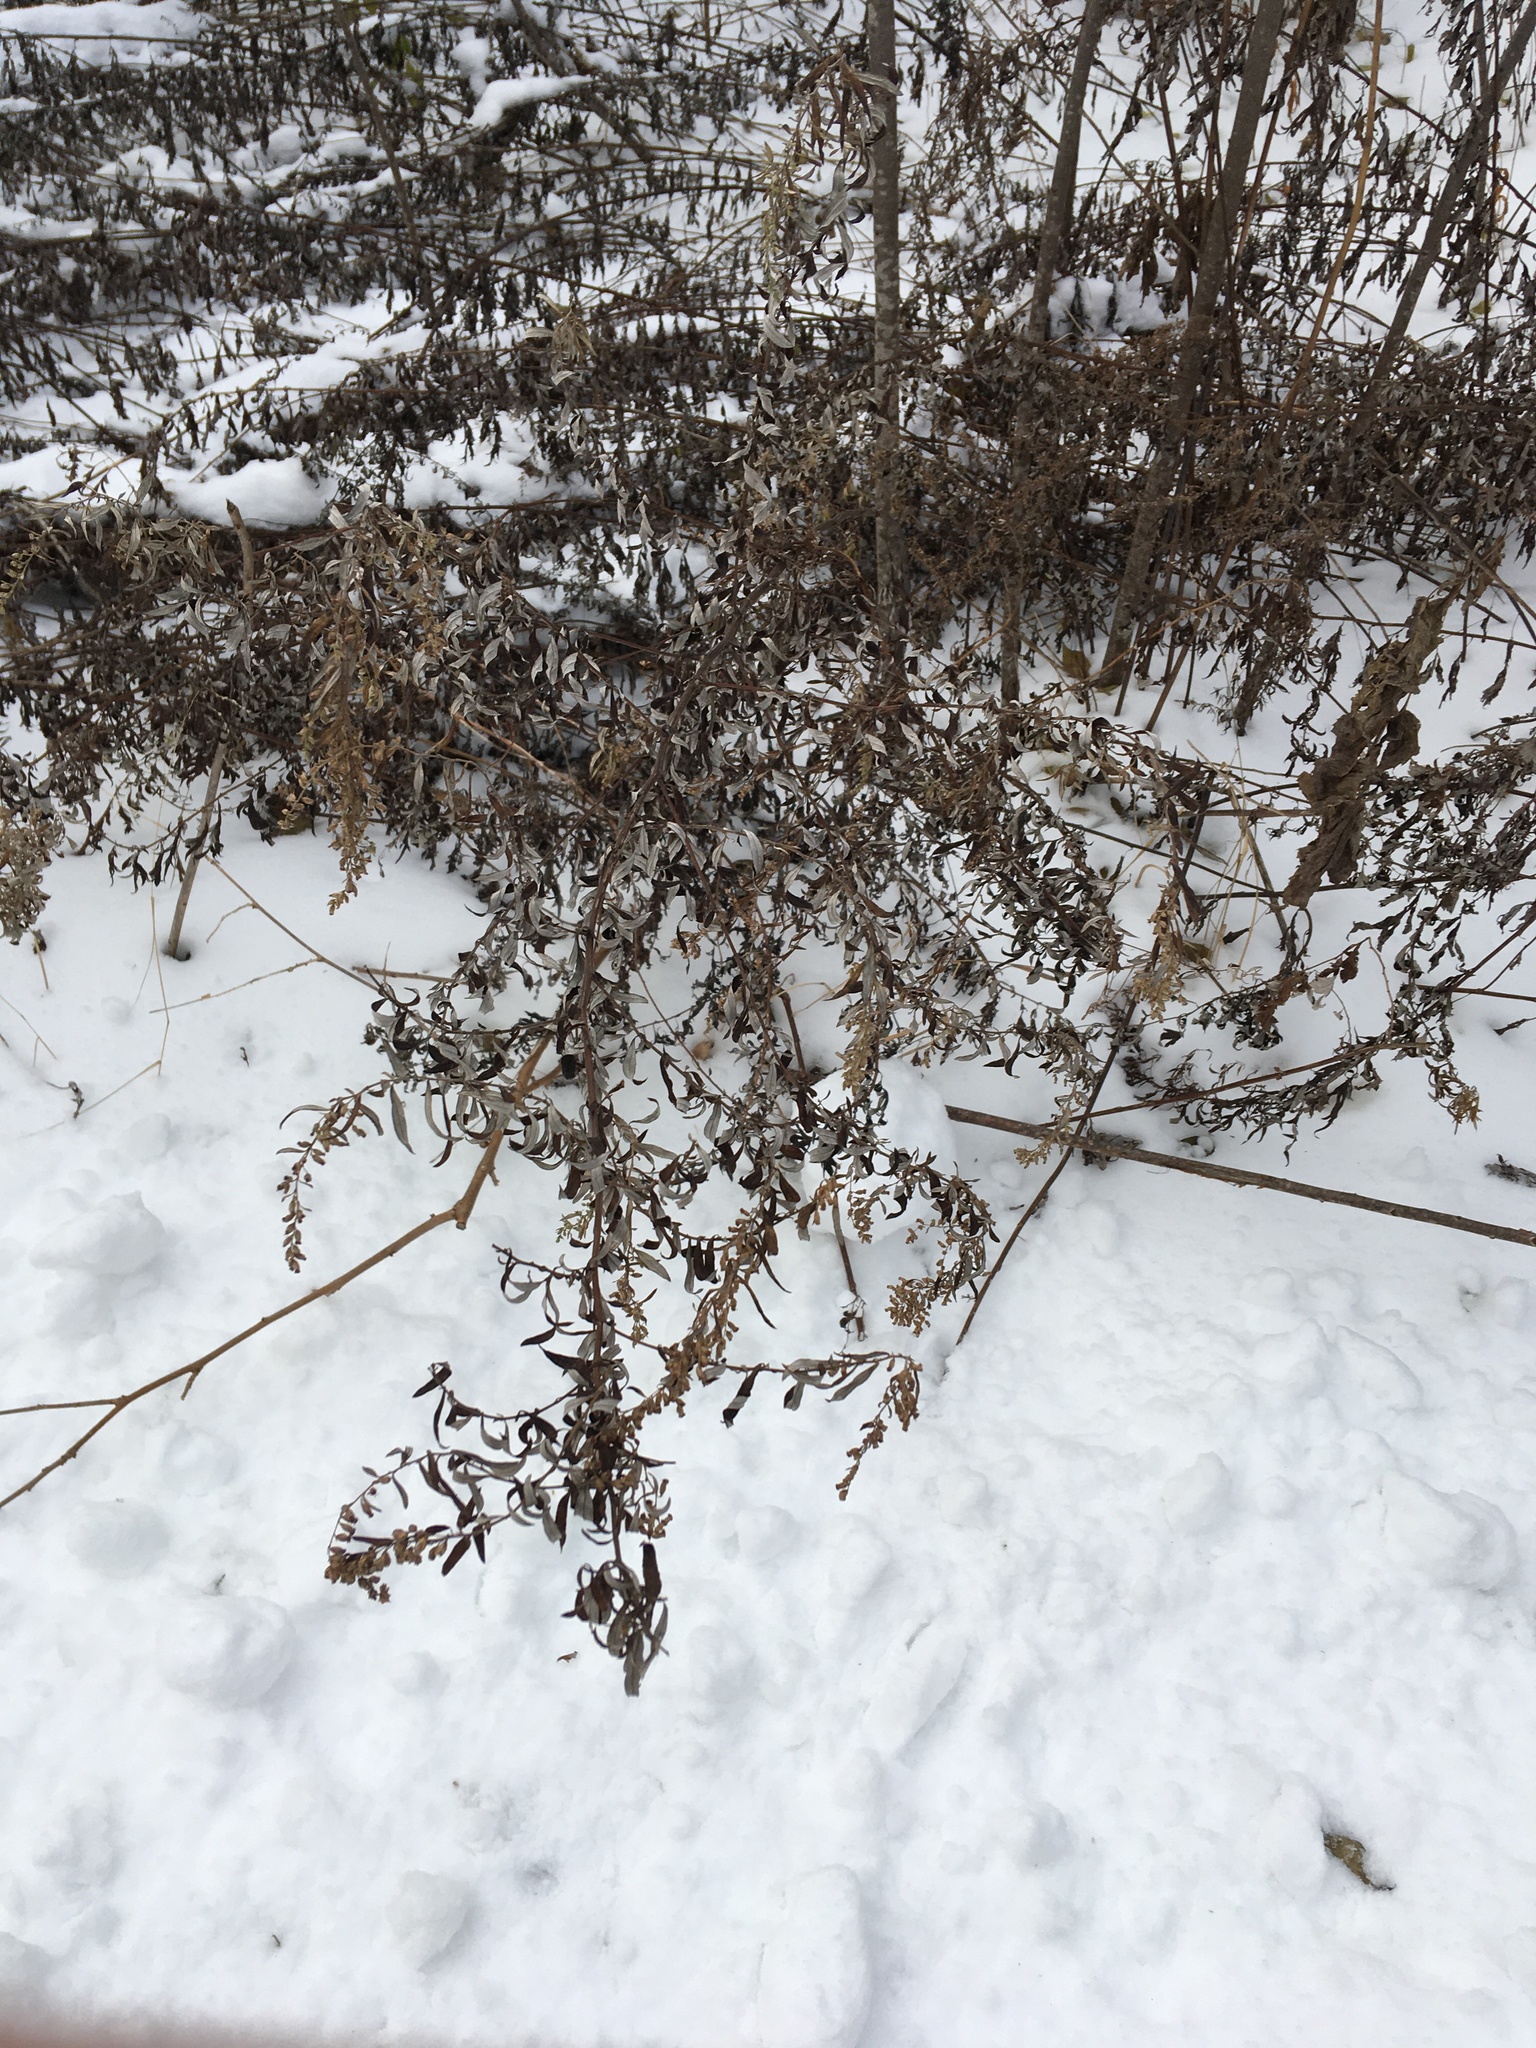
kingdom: Plantae
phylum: Tracheophyta
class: Magnoliopsida
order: Asterales
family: Asteraceae
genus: Artemisia
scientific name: Artemisia vulgaris
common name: Mugwort
